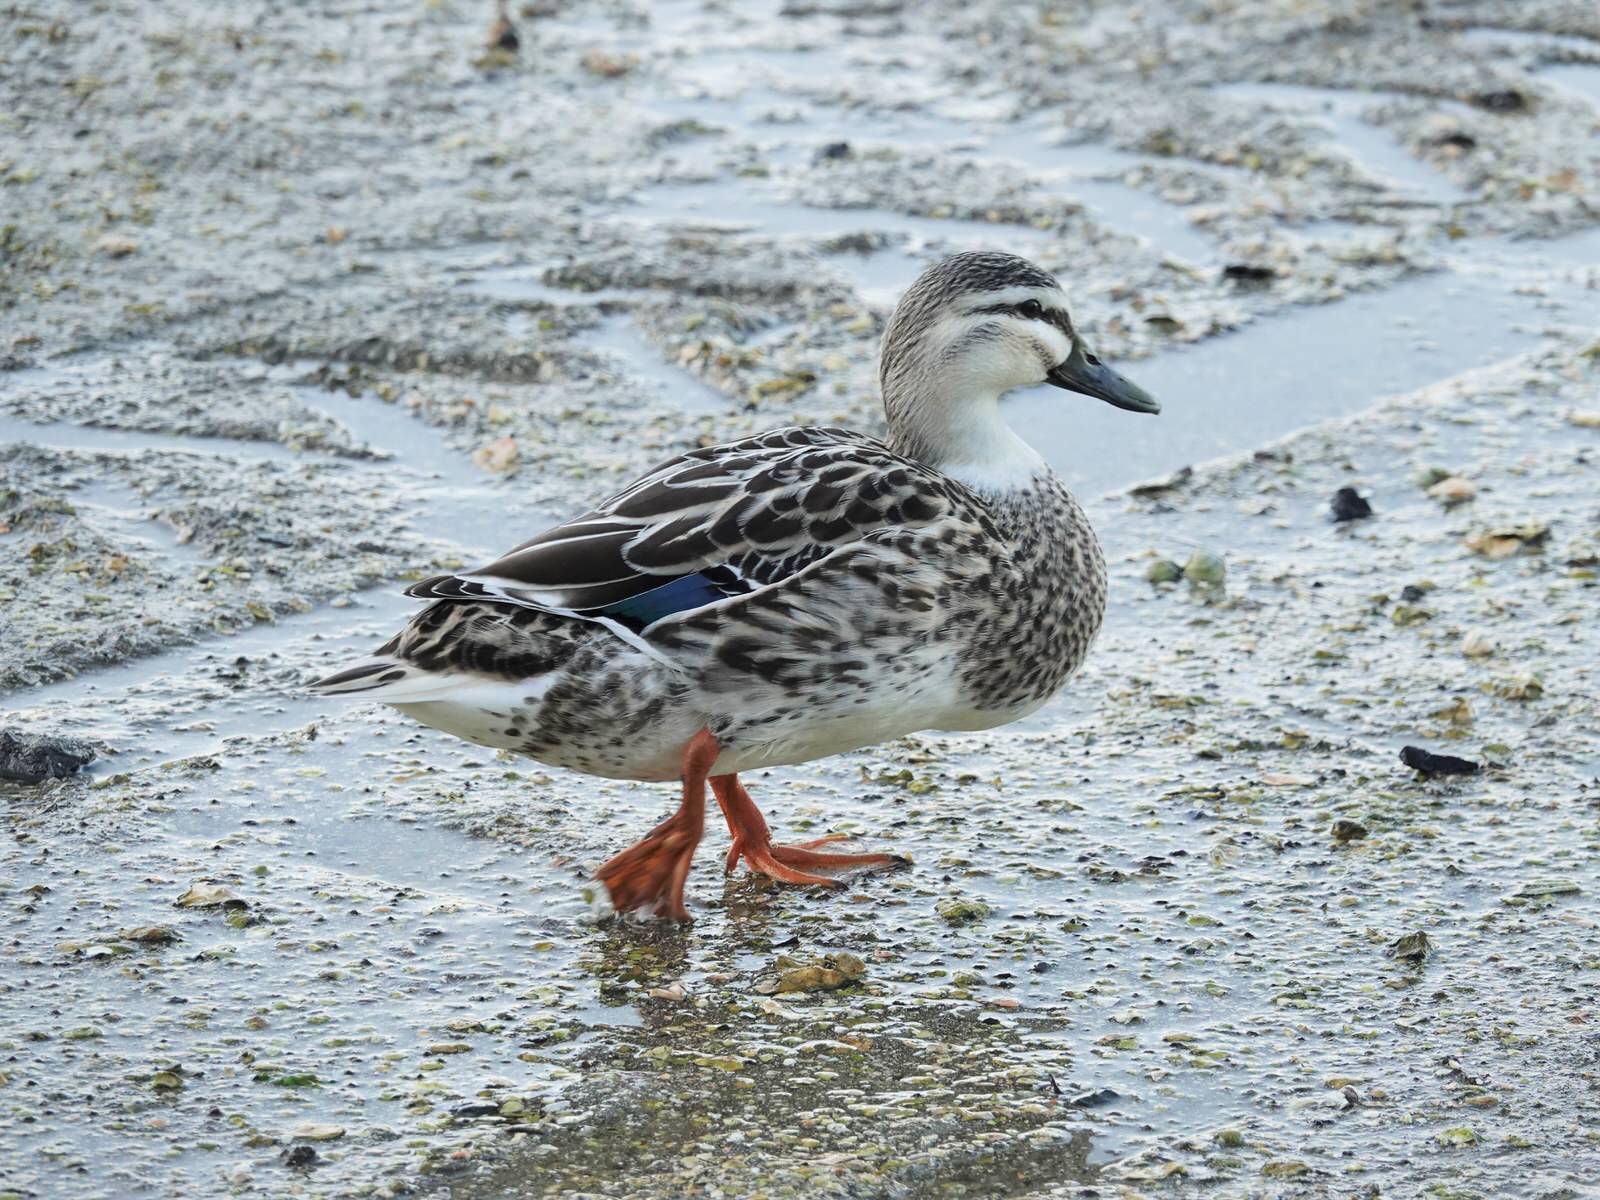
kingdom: Animalia
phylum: Chordata
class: Aves
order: Anseriformes
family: Anatidae
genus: Anas
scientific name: Anas
